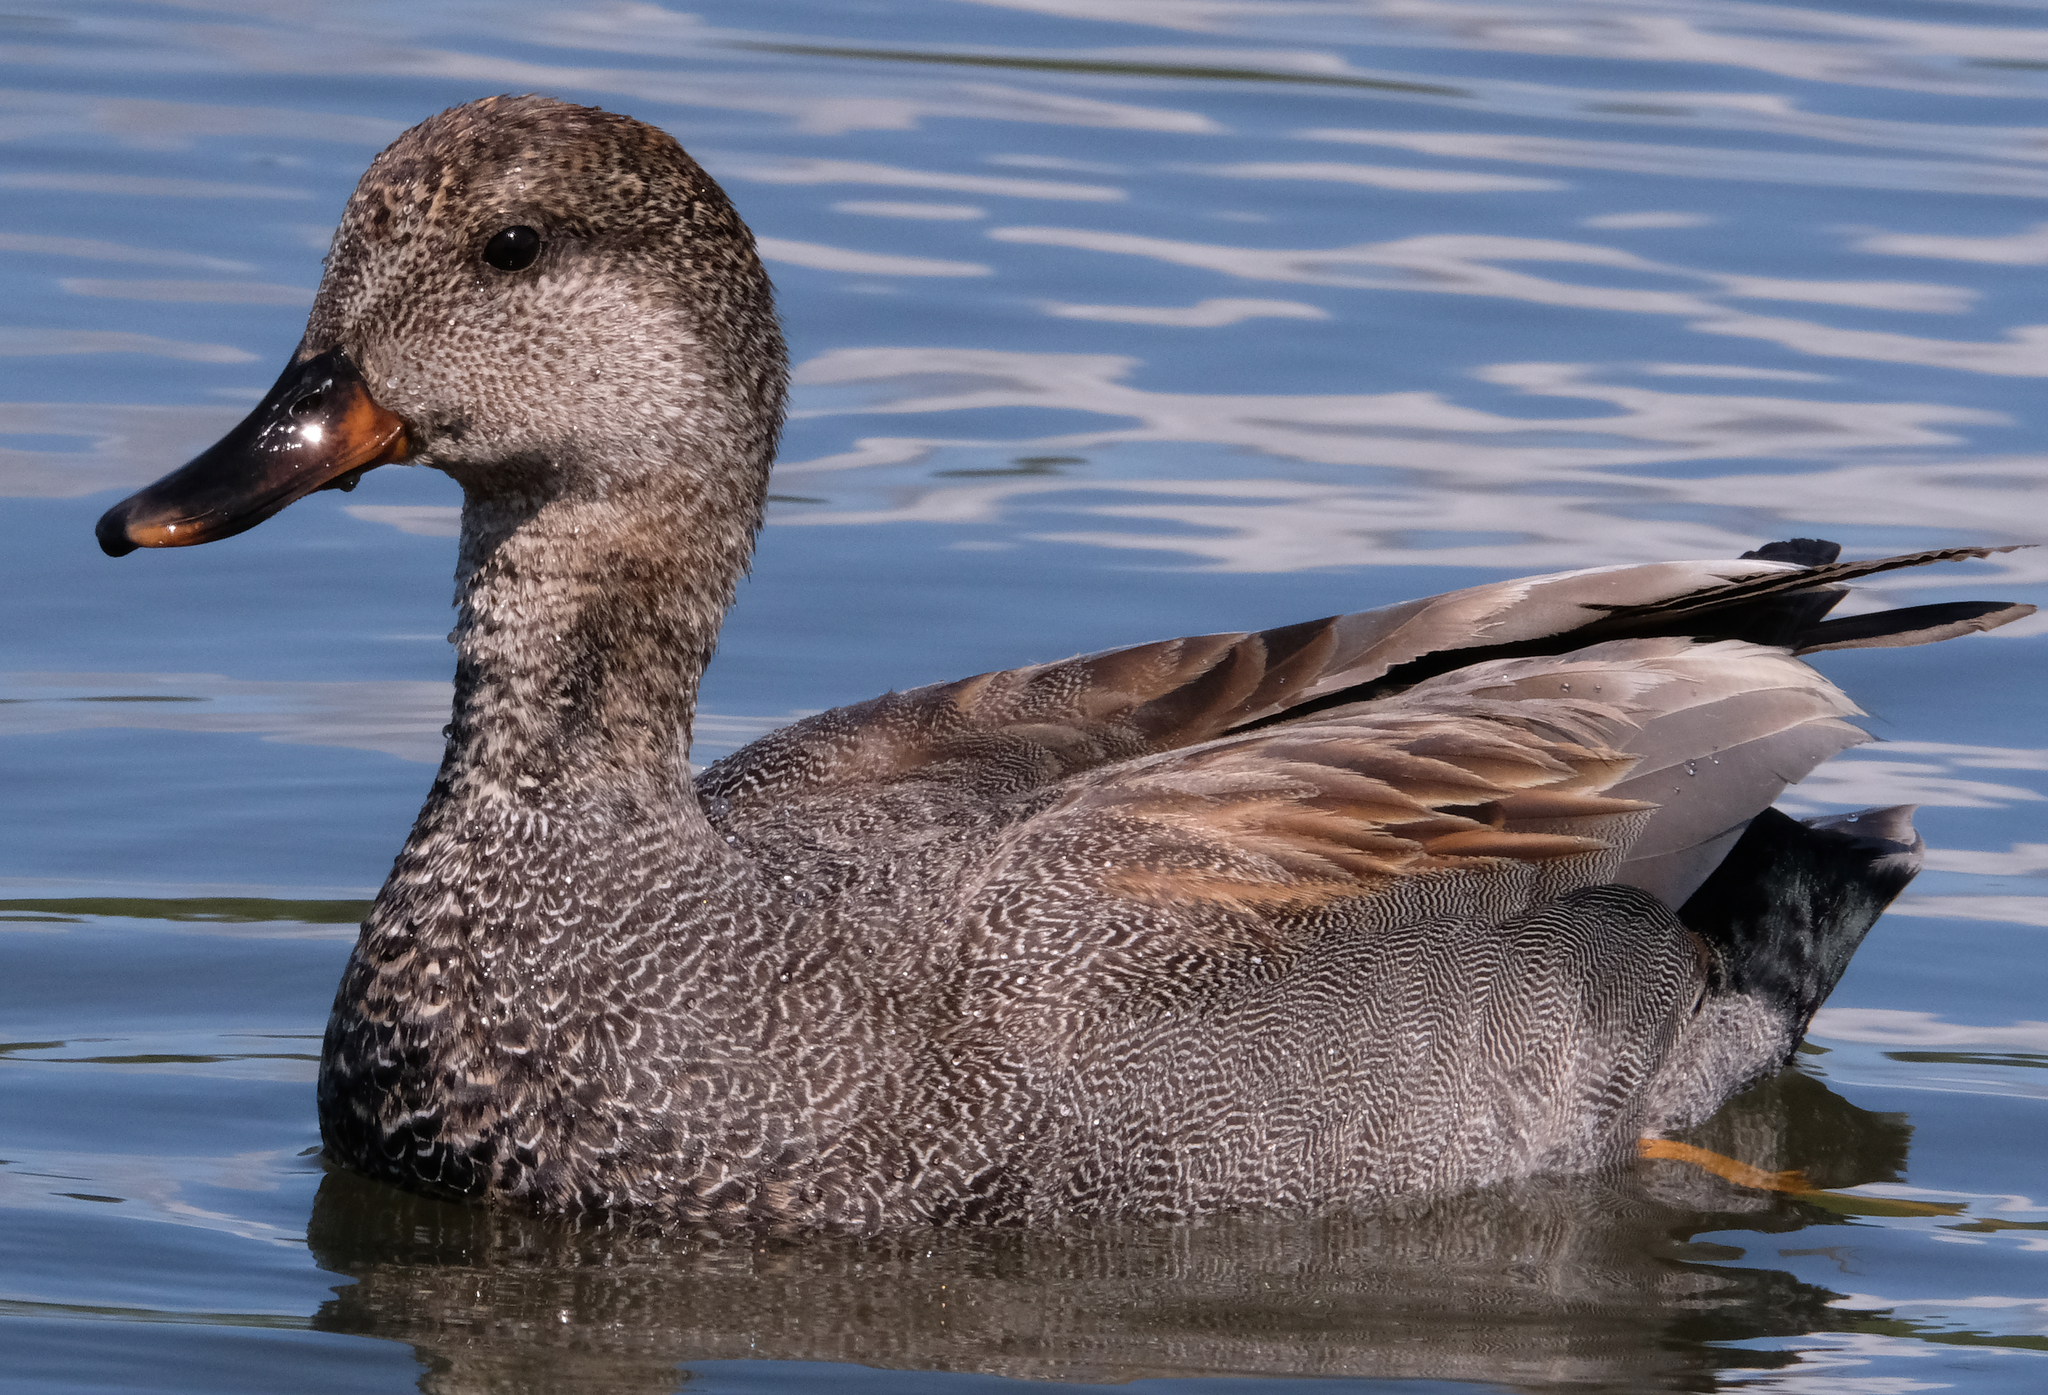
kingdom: Animalia
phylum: Chordata
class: Aves
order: Anseriformes
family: Anatidae
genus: Mareca
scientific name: Mareca strepera
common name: Gadwall
